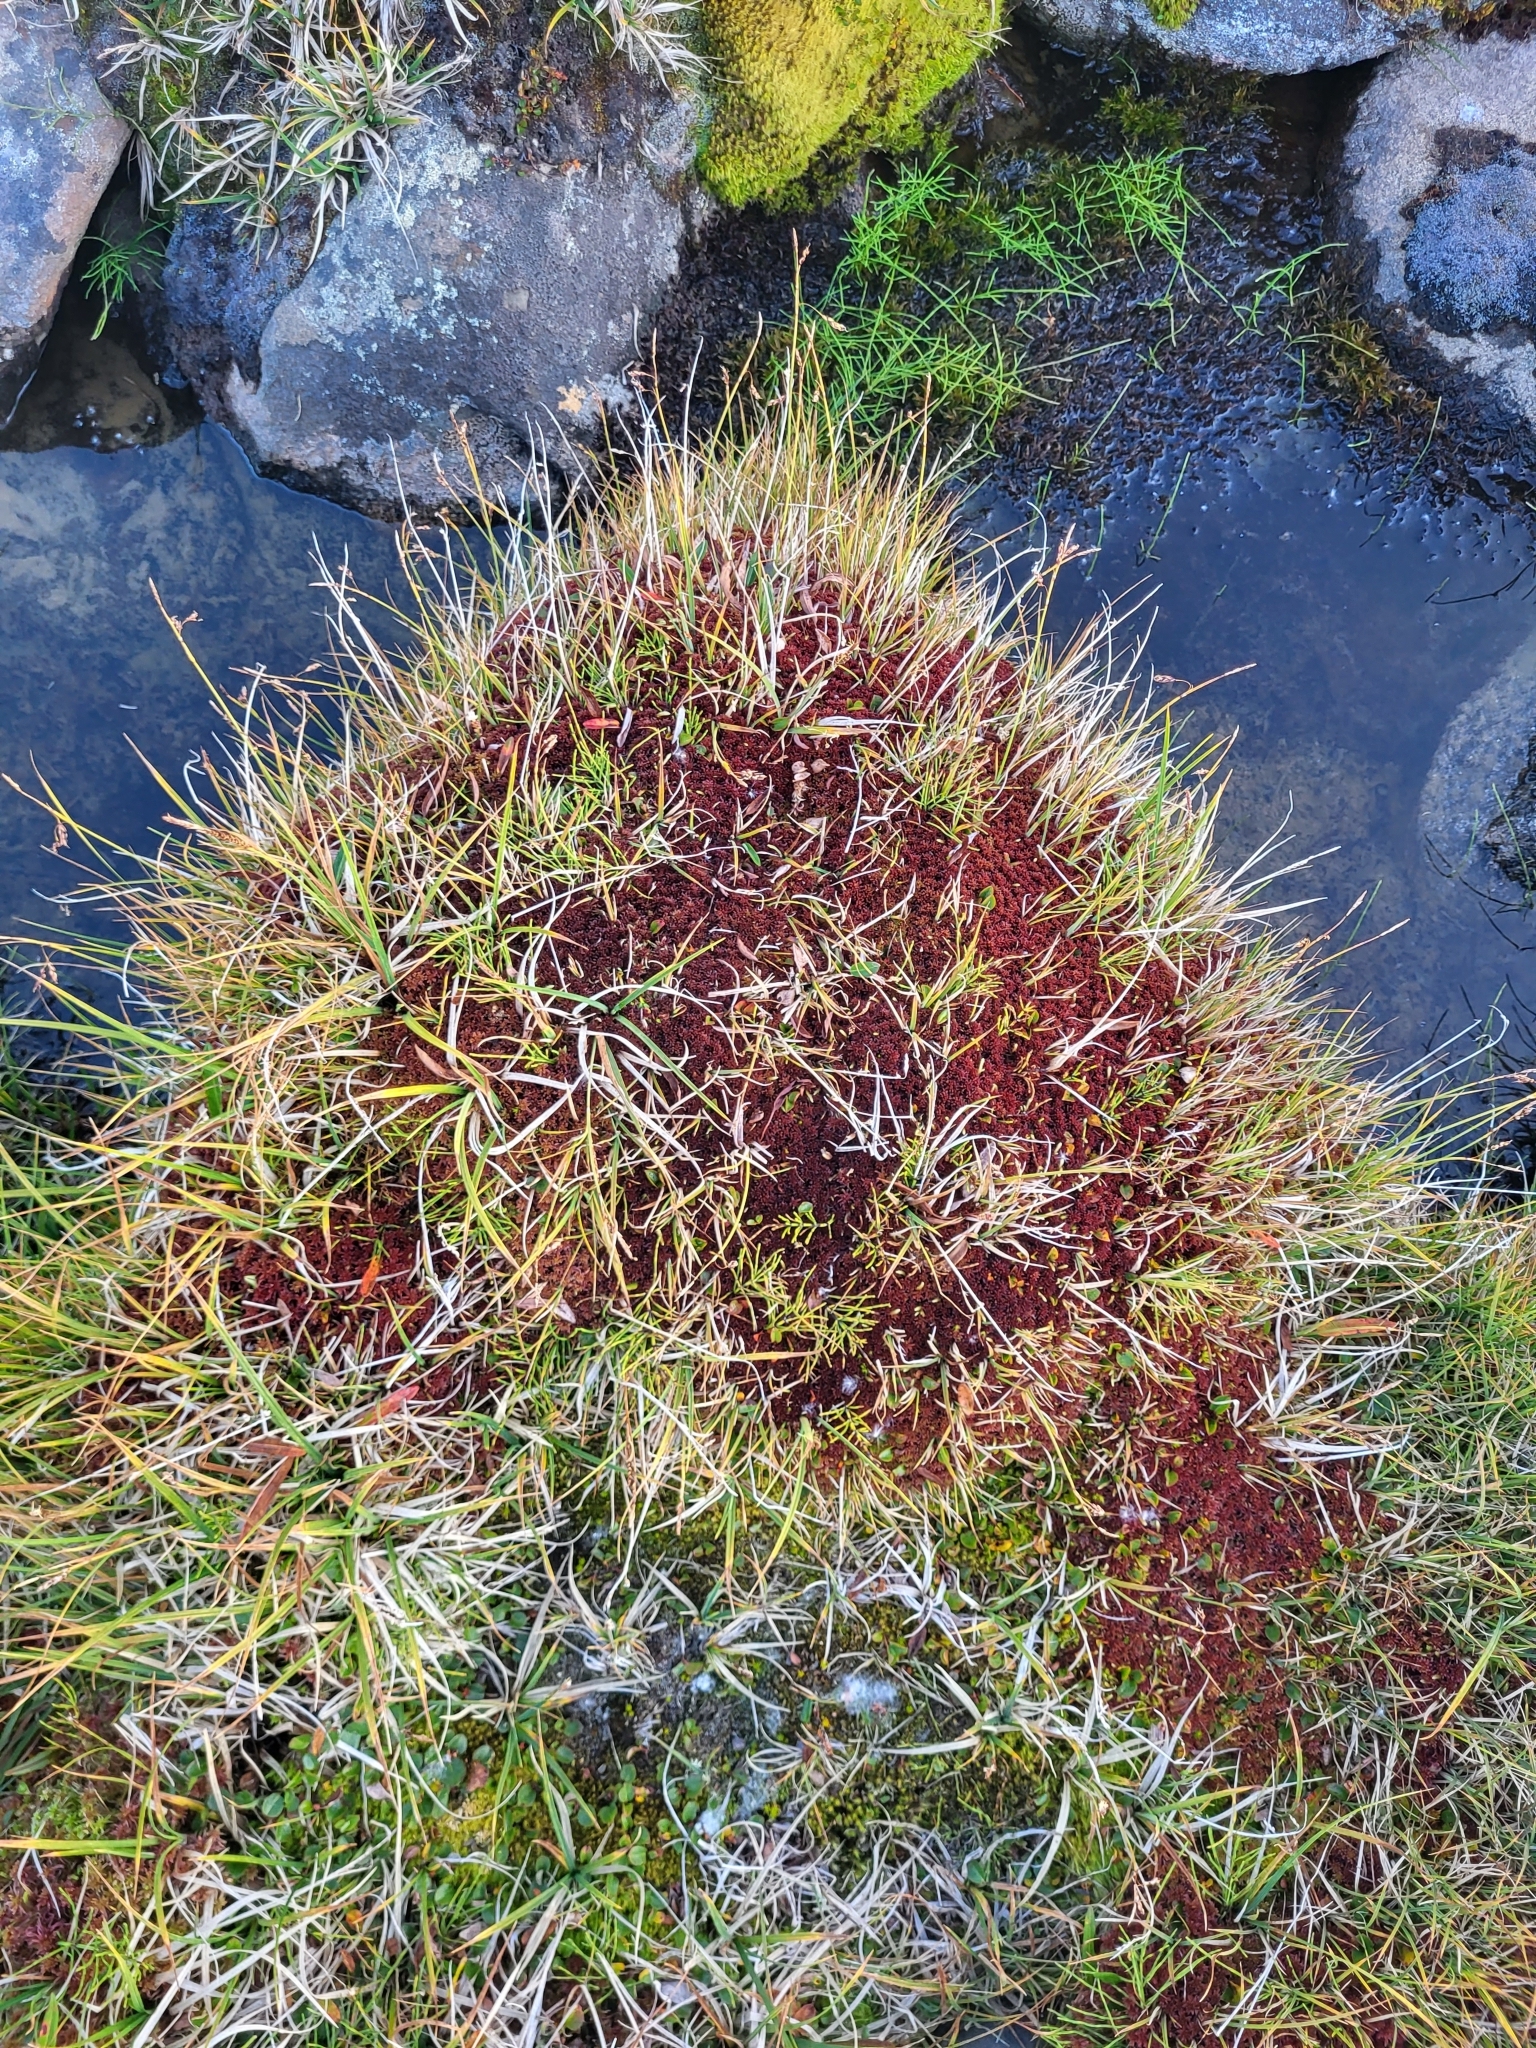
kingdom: Plantae
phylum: Bryophyta
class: Sphagnopsida
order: Sphagnales
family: Sphagnaceae
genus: Sphagnum
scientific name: Sphagnum warnstorfii
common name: Warnstorf's peat moss
